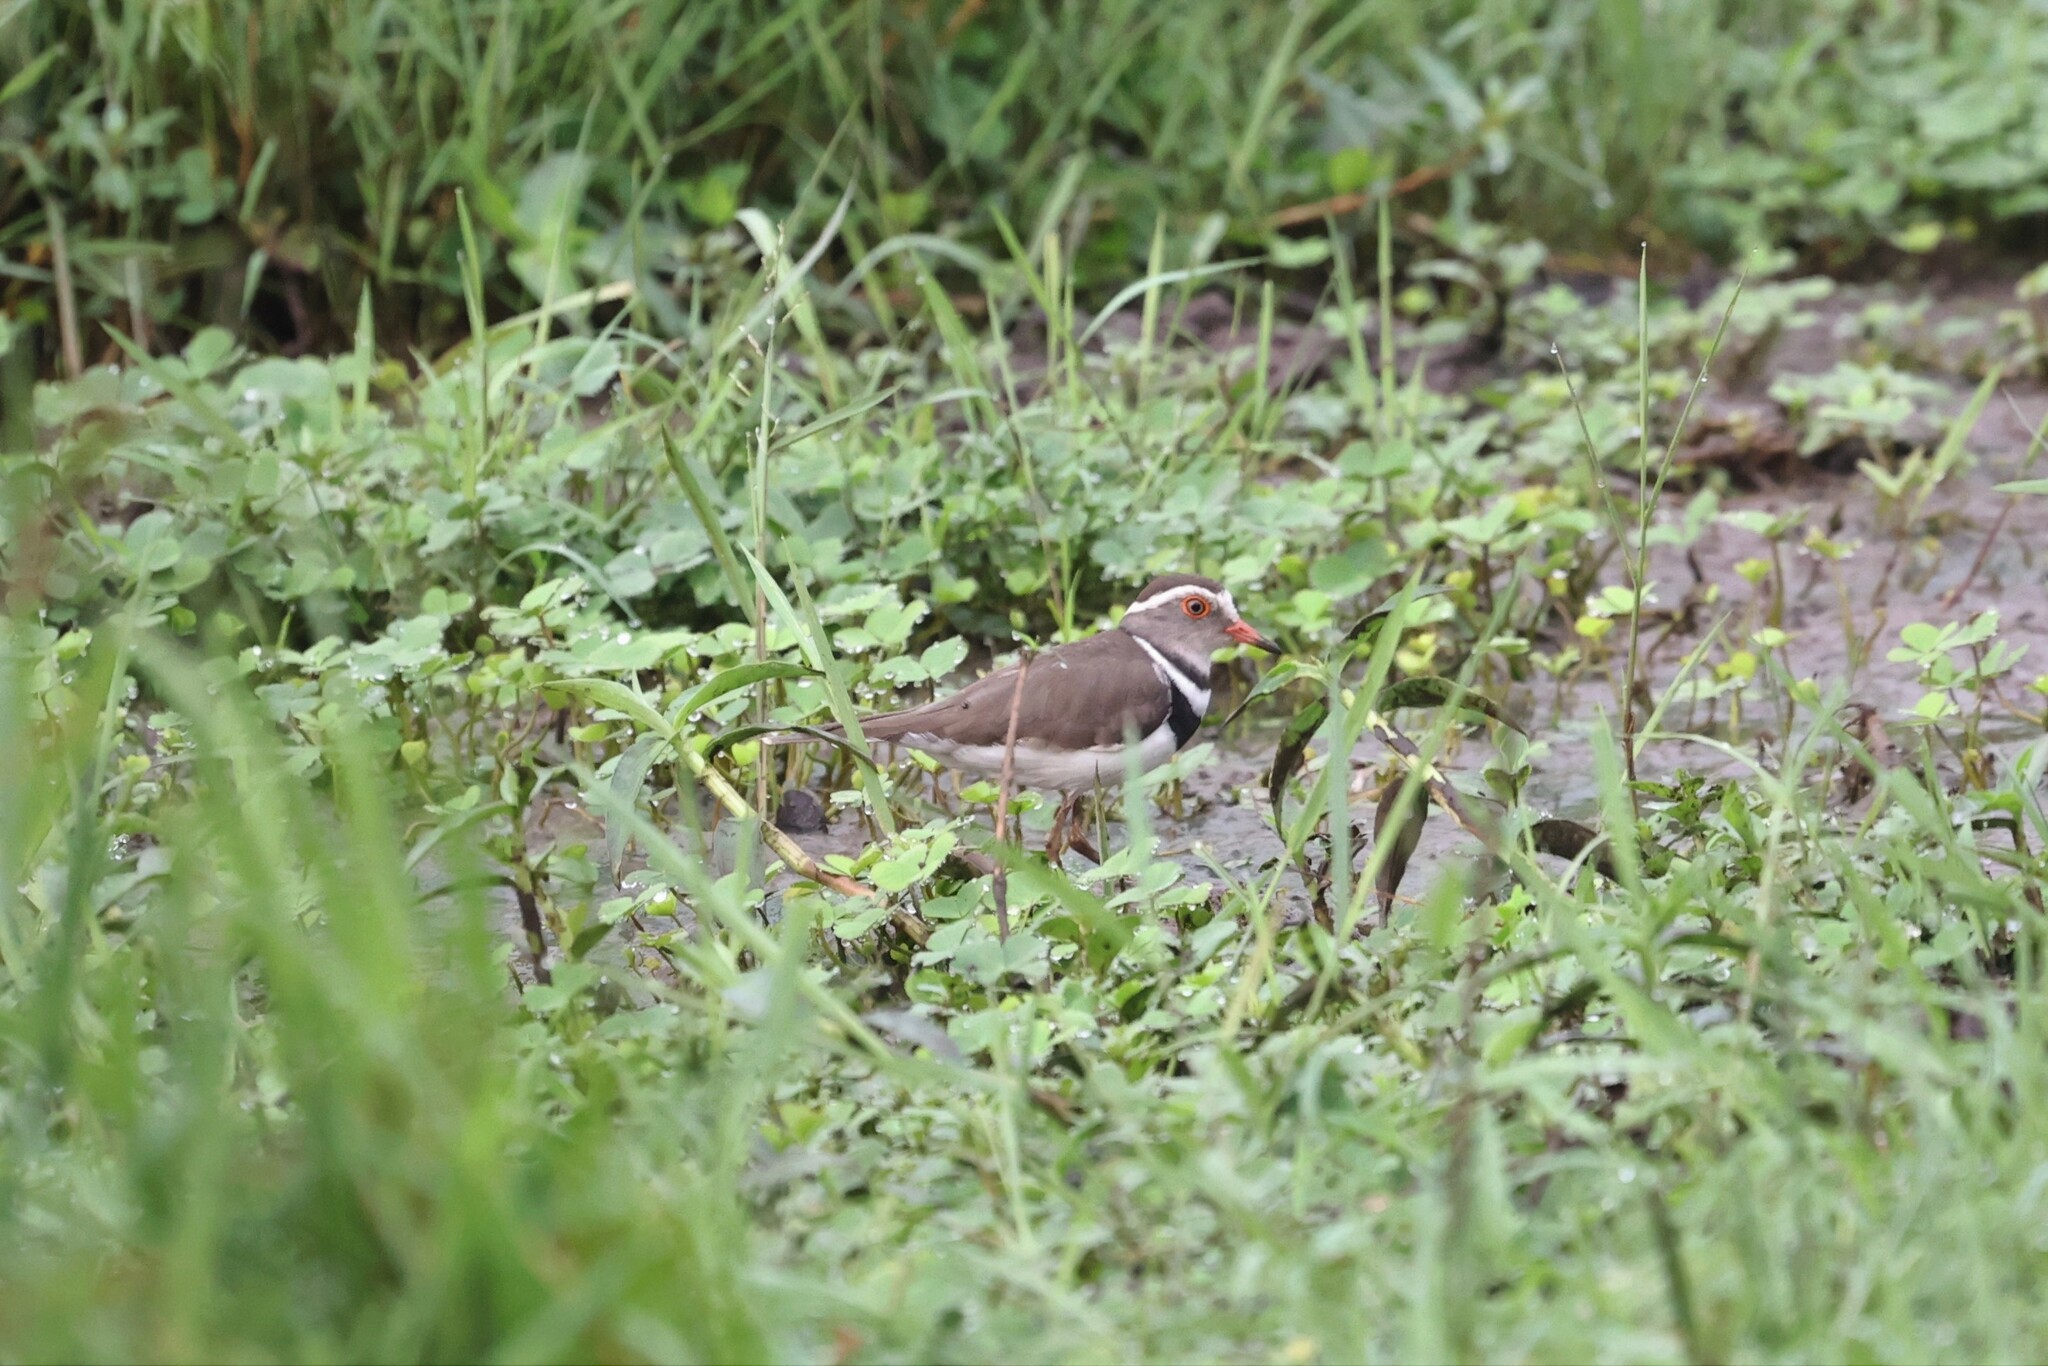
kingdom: Animalia
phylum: Chordata
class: Aves
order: Charadriiformes
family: Charadriidae
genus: Charadrius
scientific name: Charadrius tricollaris
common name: Three-banded plover
